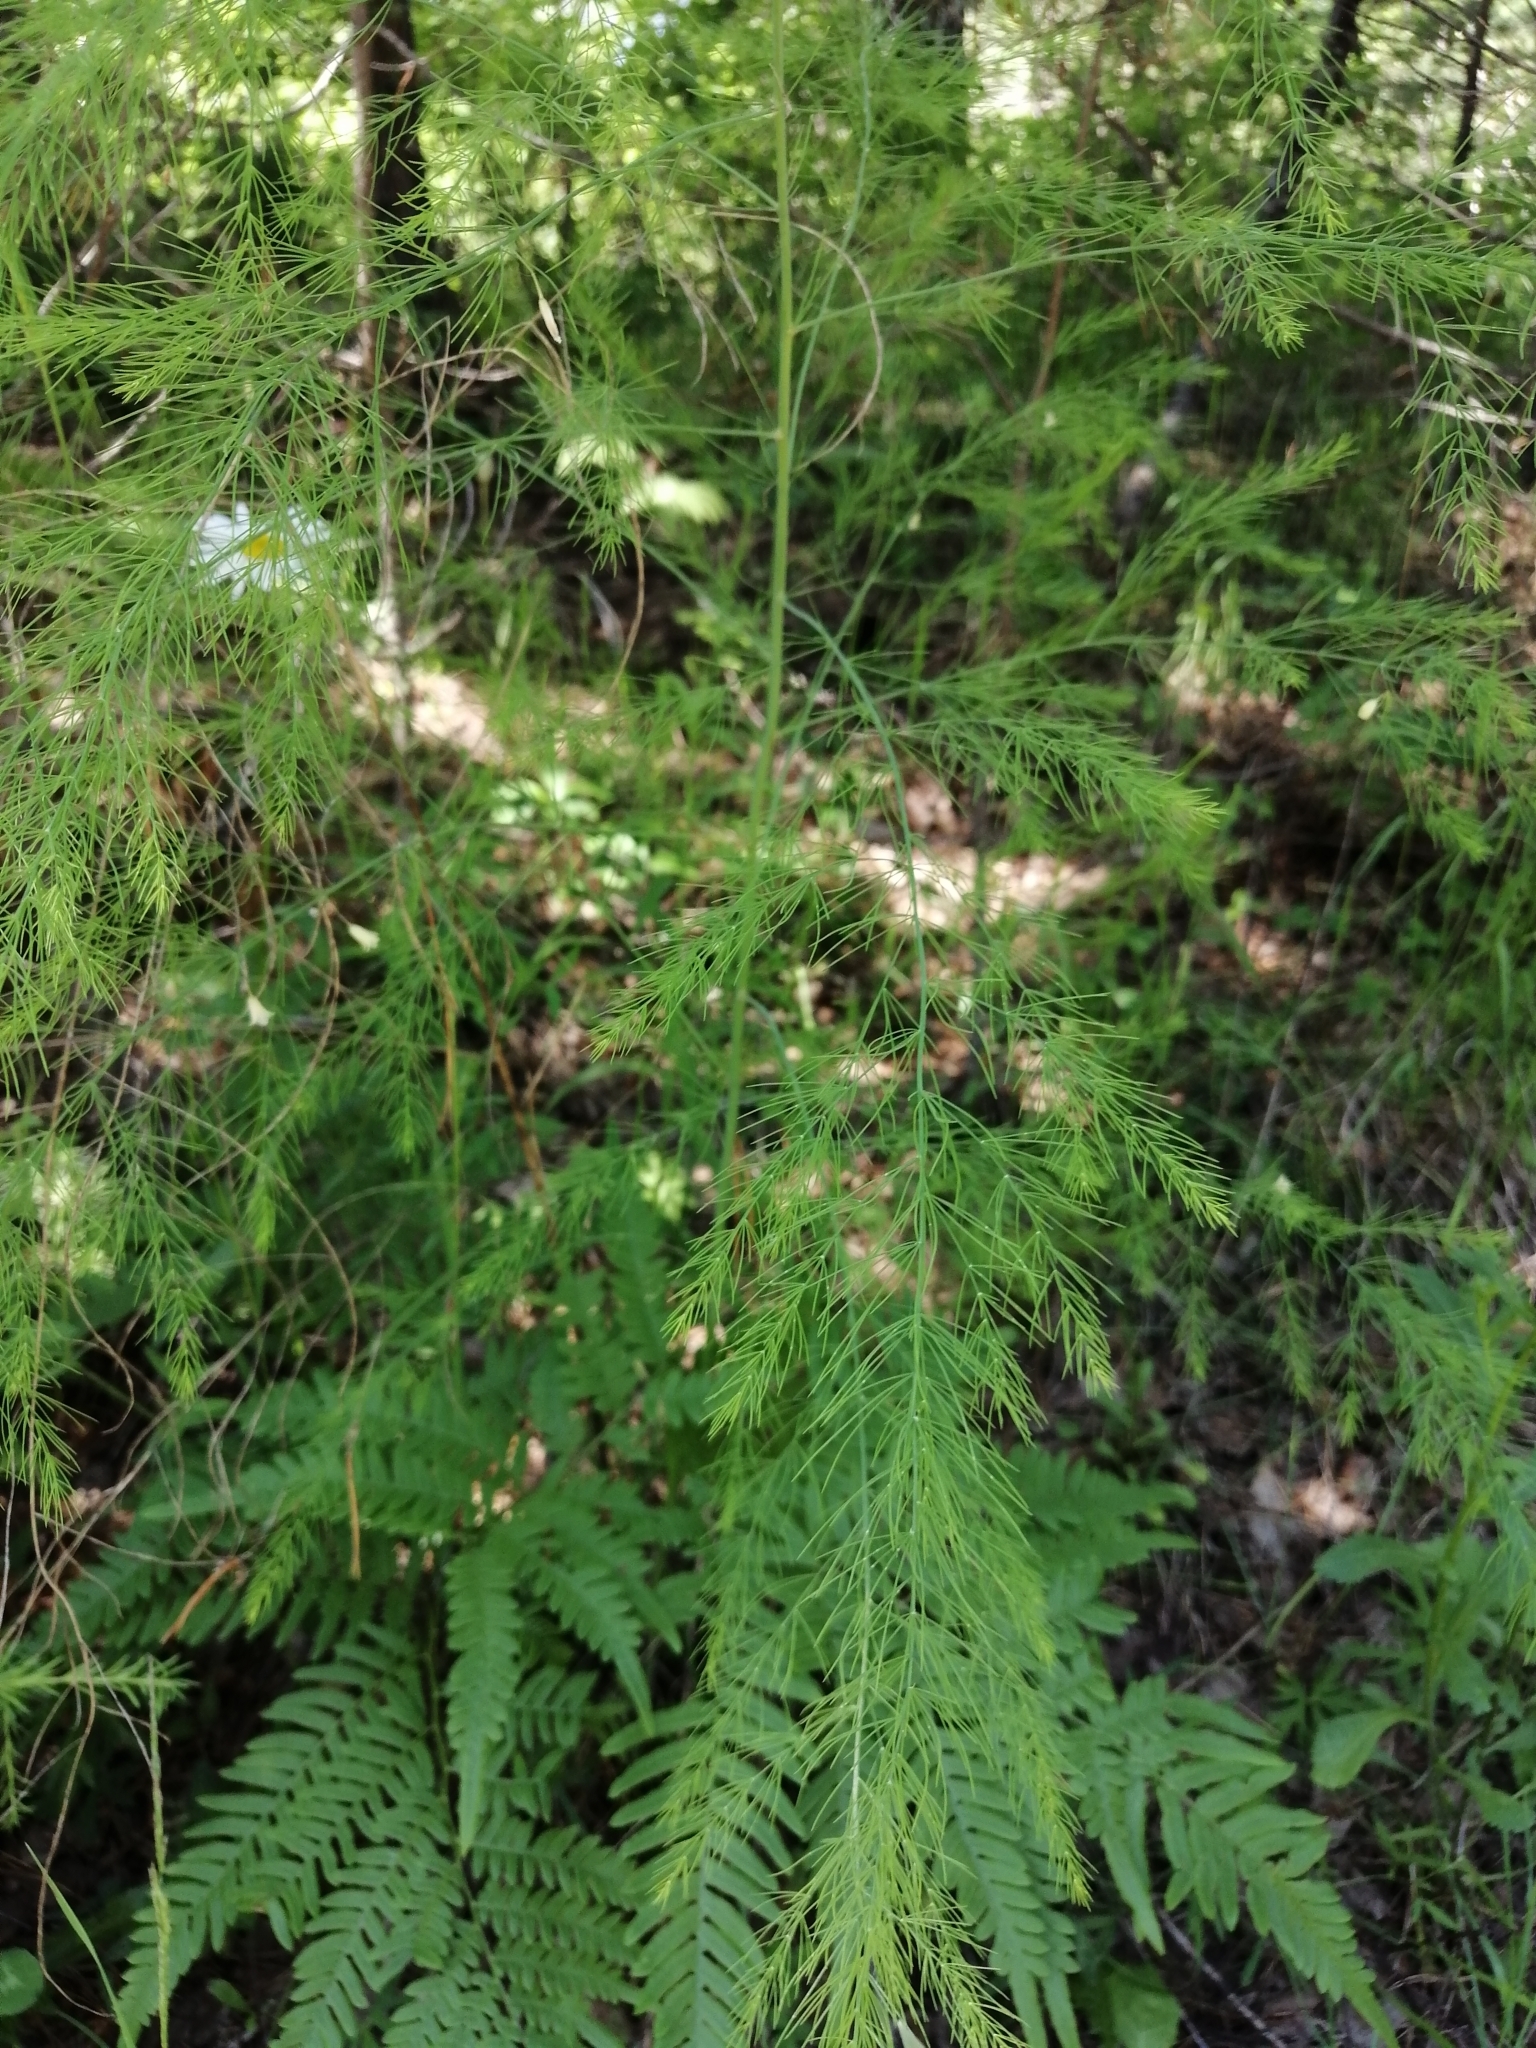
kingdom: Plantae
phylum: Tracheophyta
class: Liliopsida
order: Asparagales
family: Asparagaceae
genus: Asparagus
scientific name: Asparagus officinalis
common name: Garden asparagus
